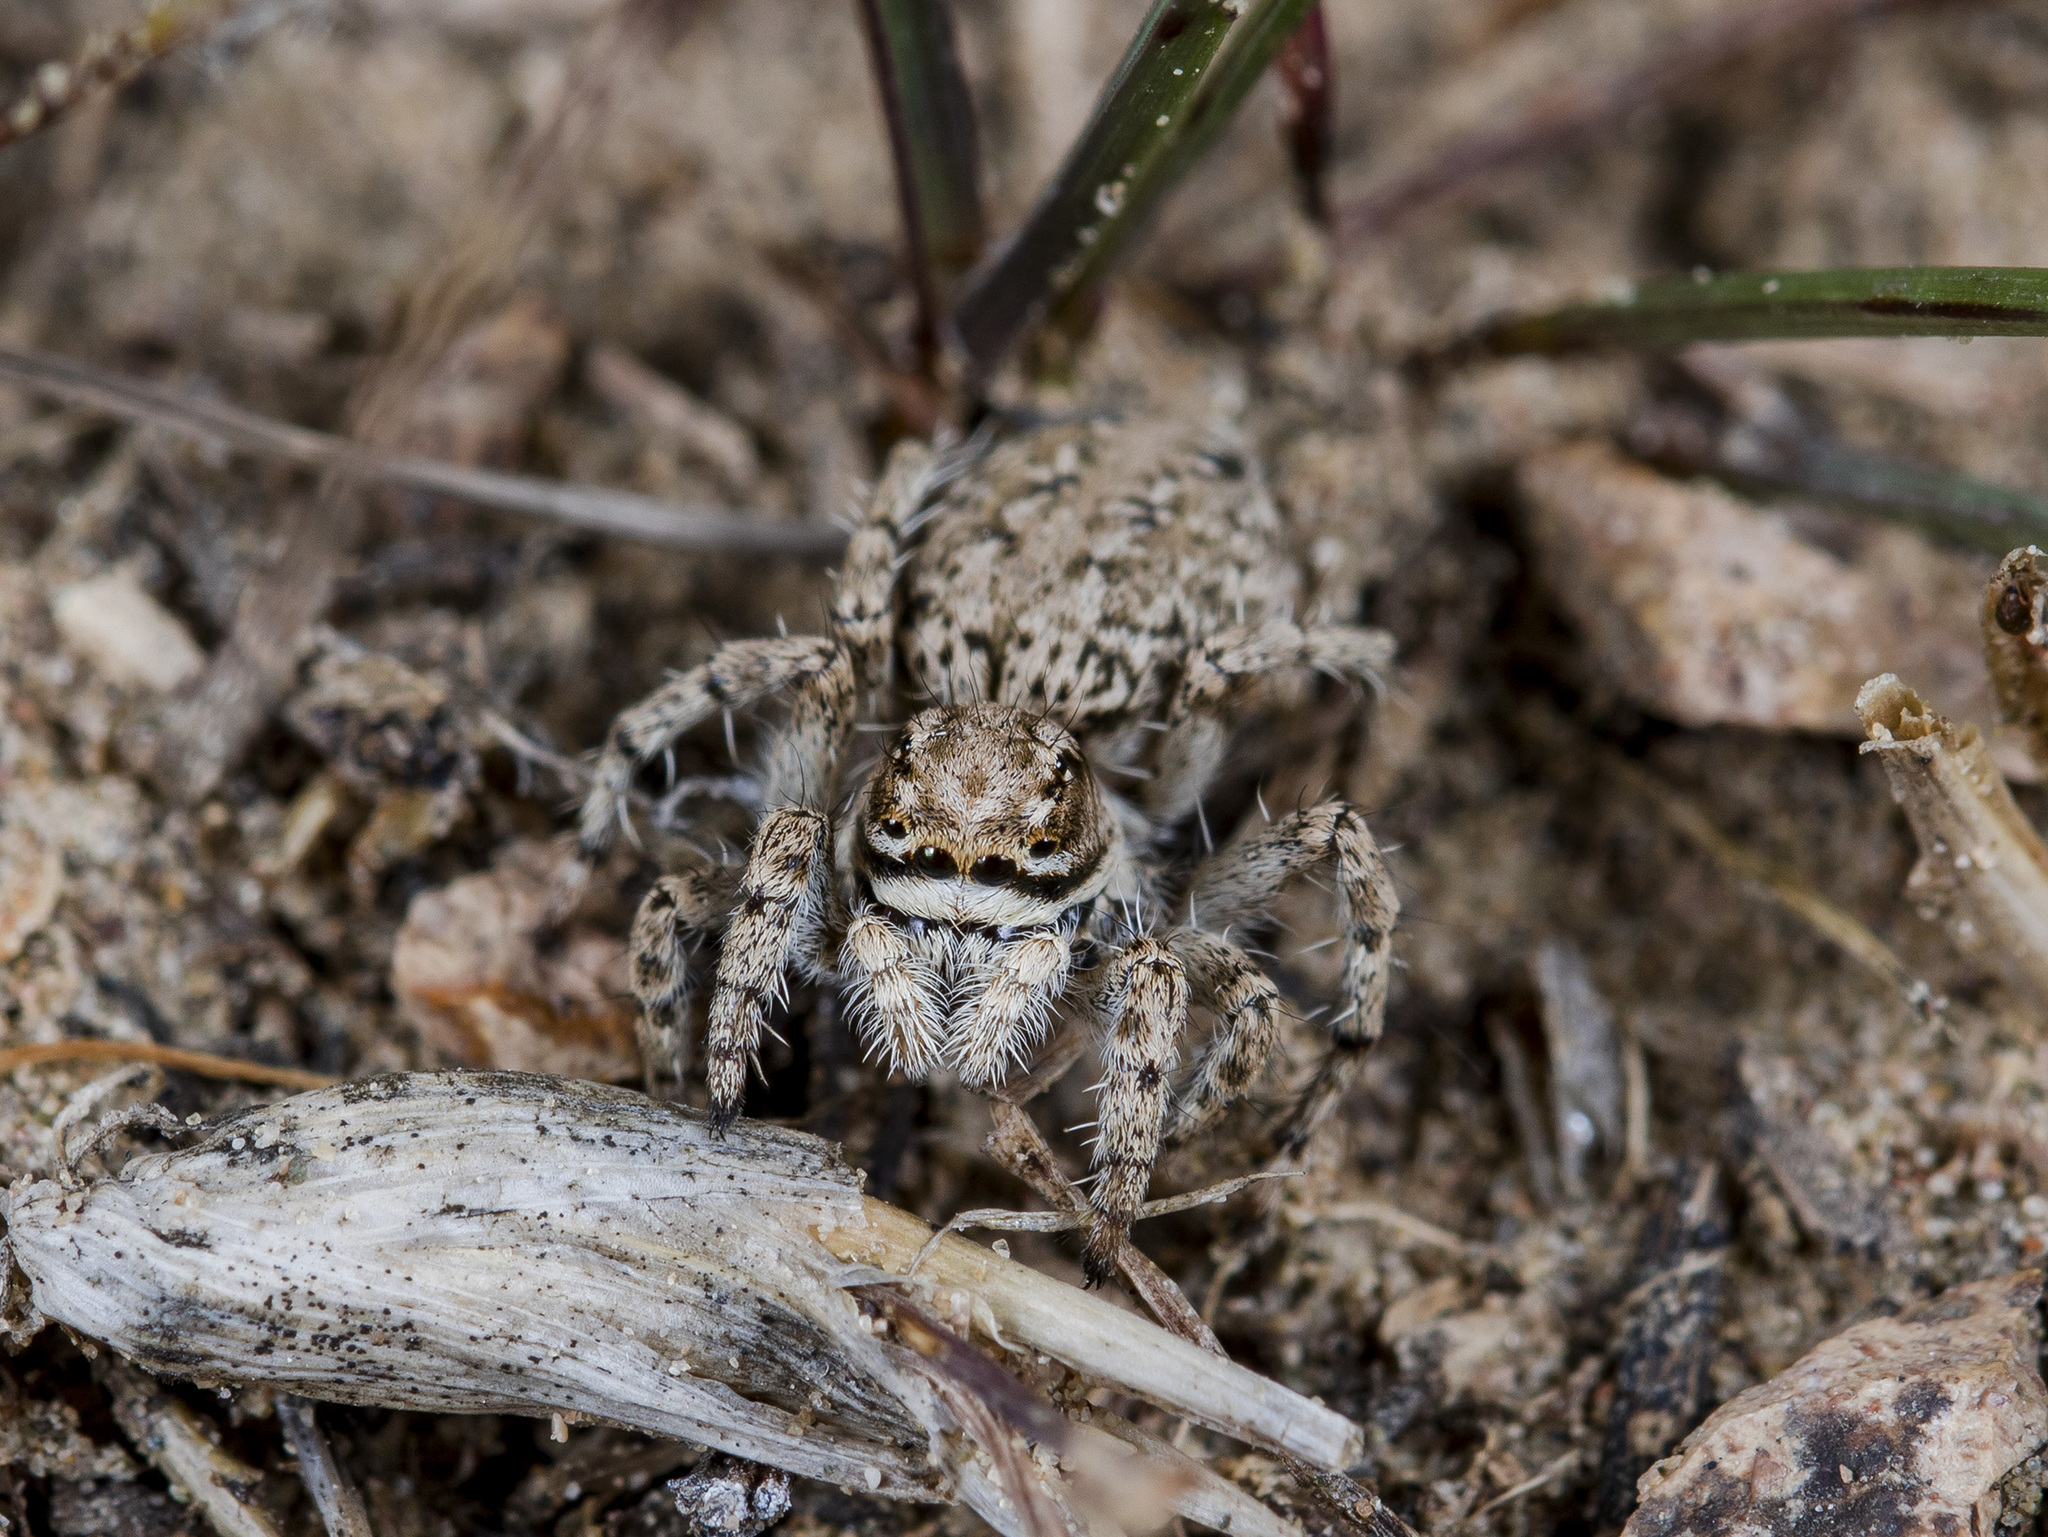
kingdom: Animalia
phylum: Arthropoda
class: Arachnida
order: Araneae
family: Salticidae
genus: Rafalus
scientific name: Rafalus variegatus
